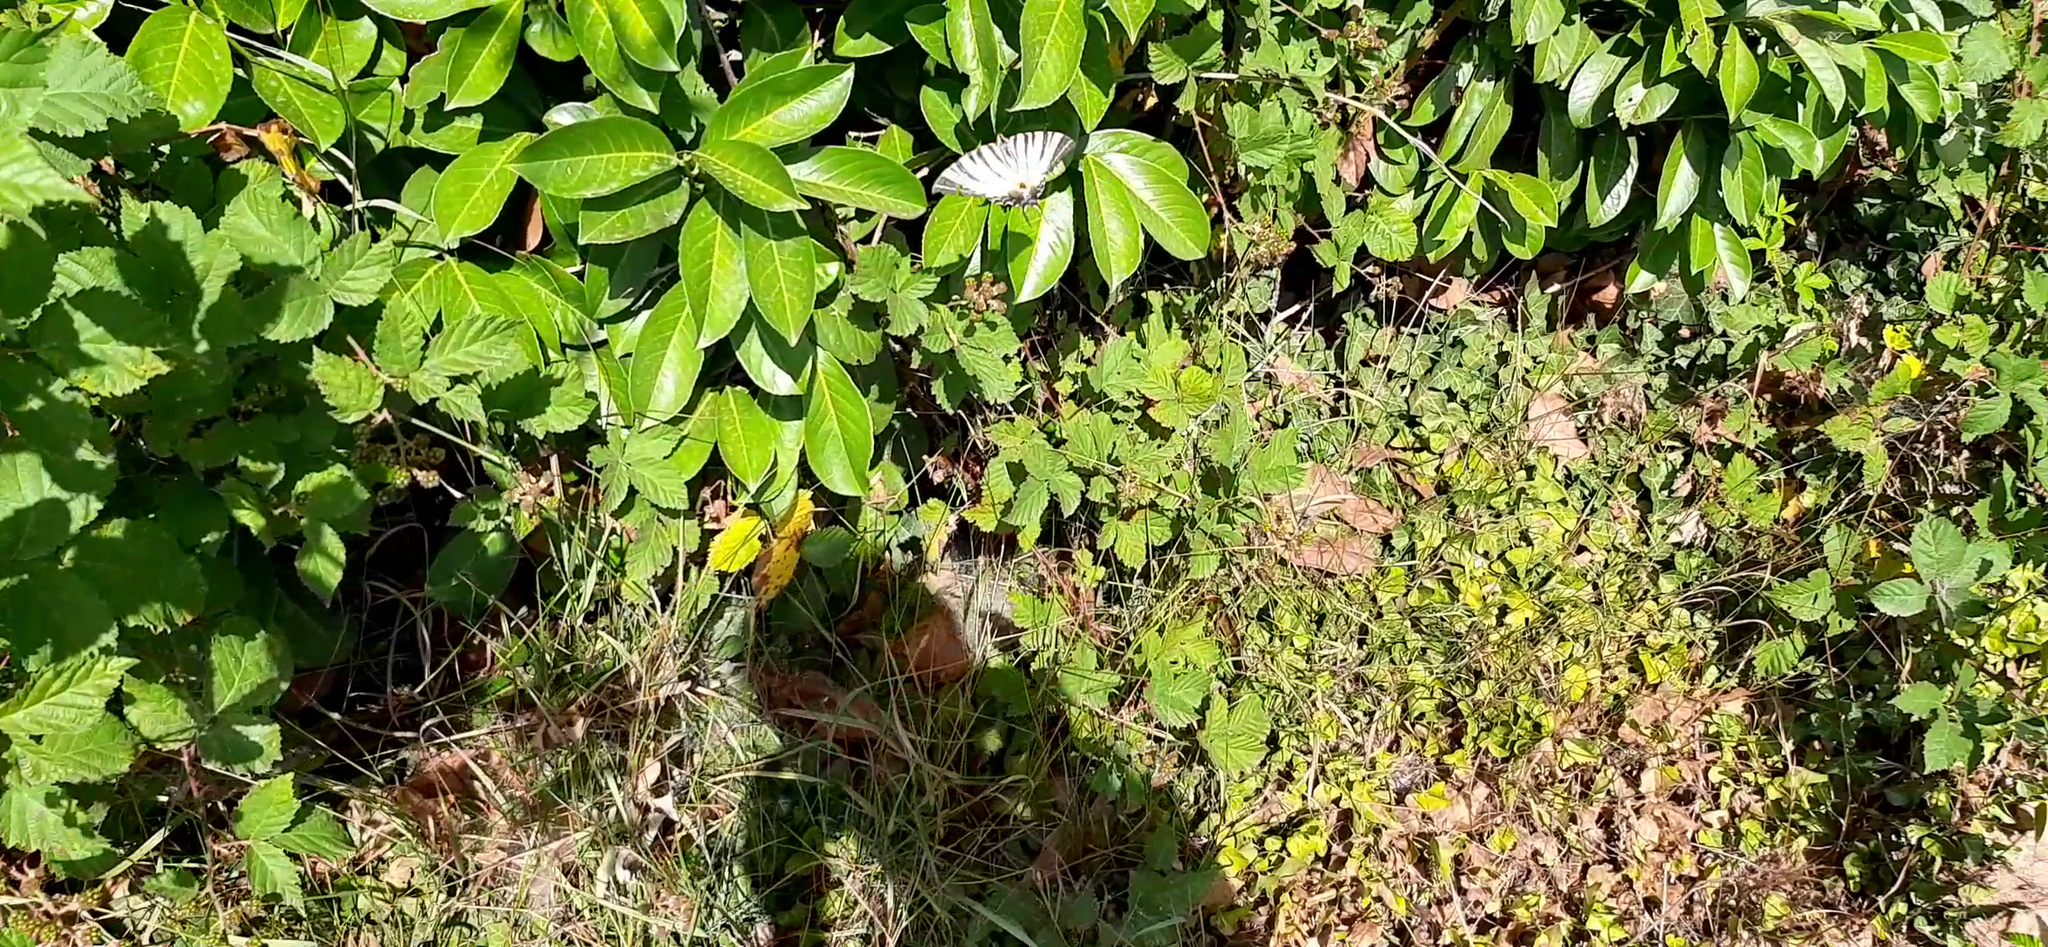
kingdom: Animalia
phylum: Arthropoda
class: Insecta
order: Lepidoptera
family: Papilionidae
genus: Iphiclides
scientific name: Iphiclides podalirius
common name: Scarce swallowtail
